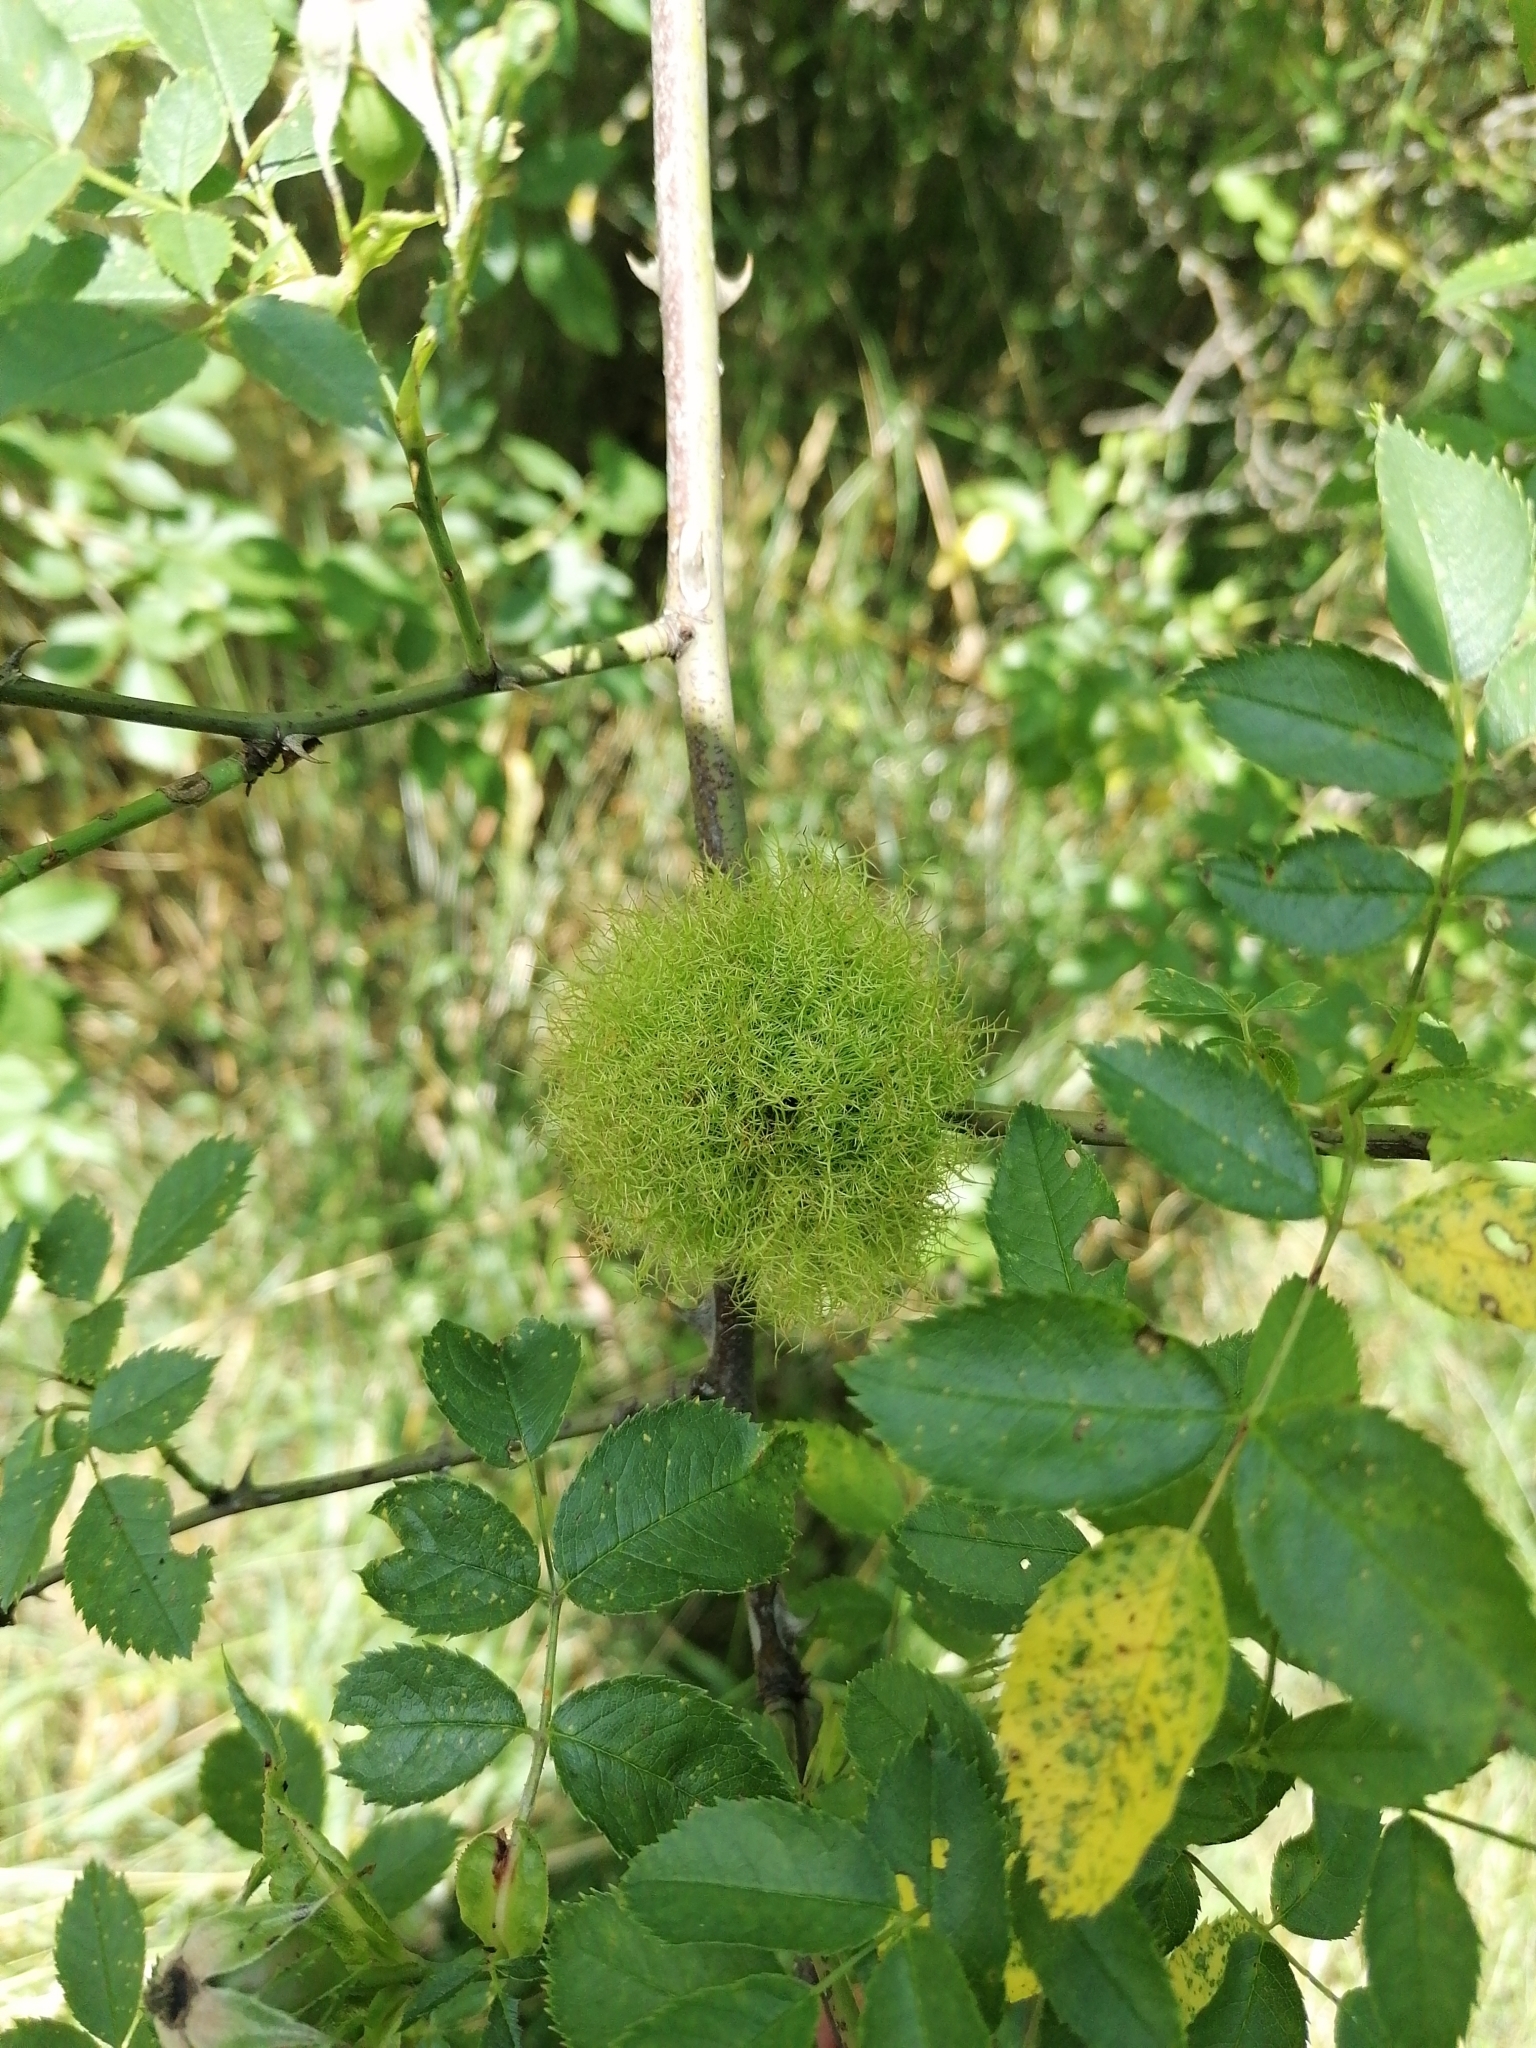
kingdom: Animalia
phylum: Arthropoda
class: Insecta
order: Hymenoptera
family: Cynipidae
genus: Diplolepis
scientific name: Diplolepis rosae
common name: Bedeguar gall
